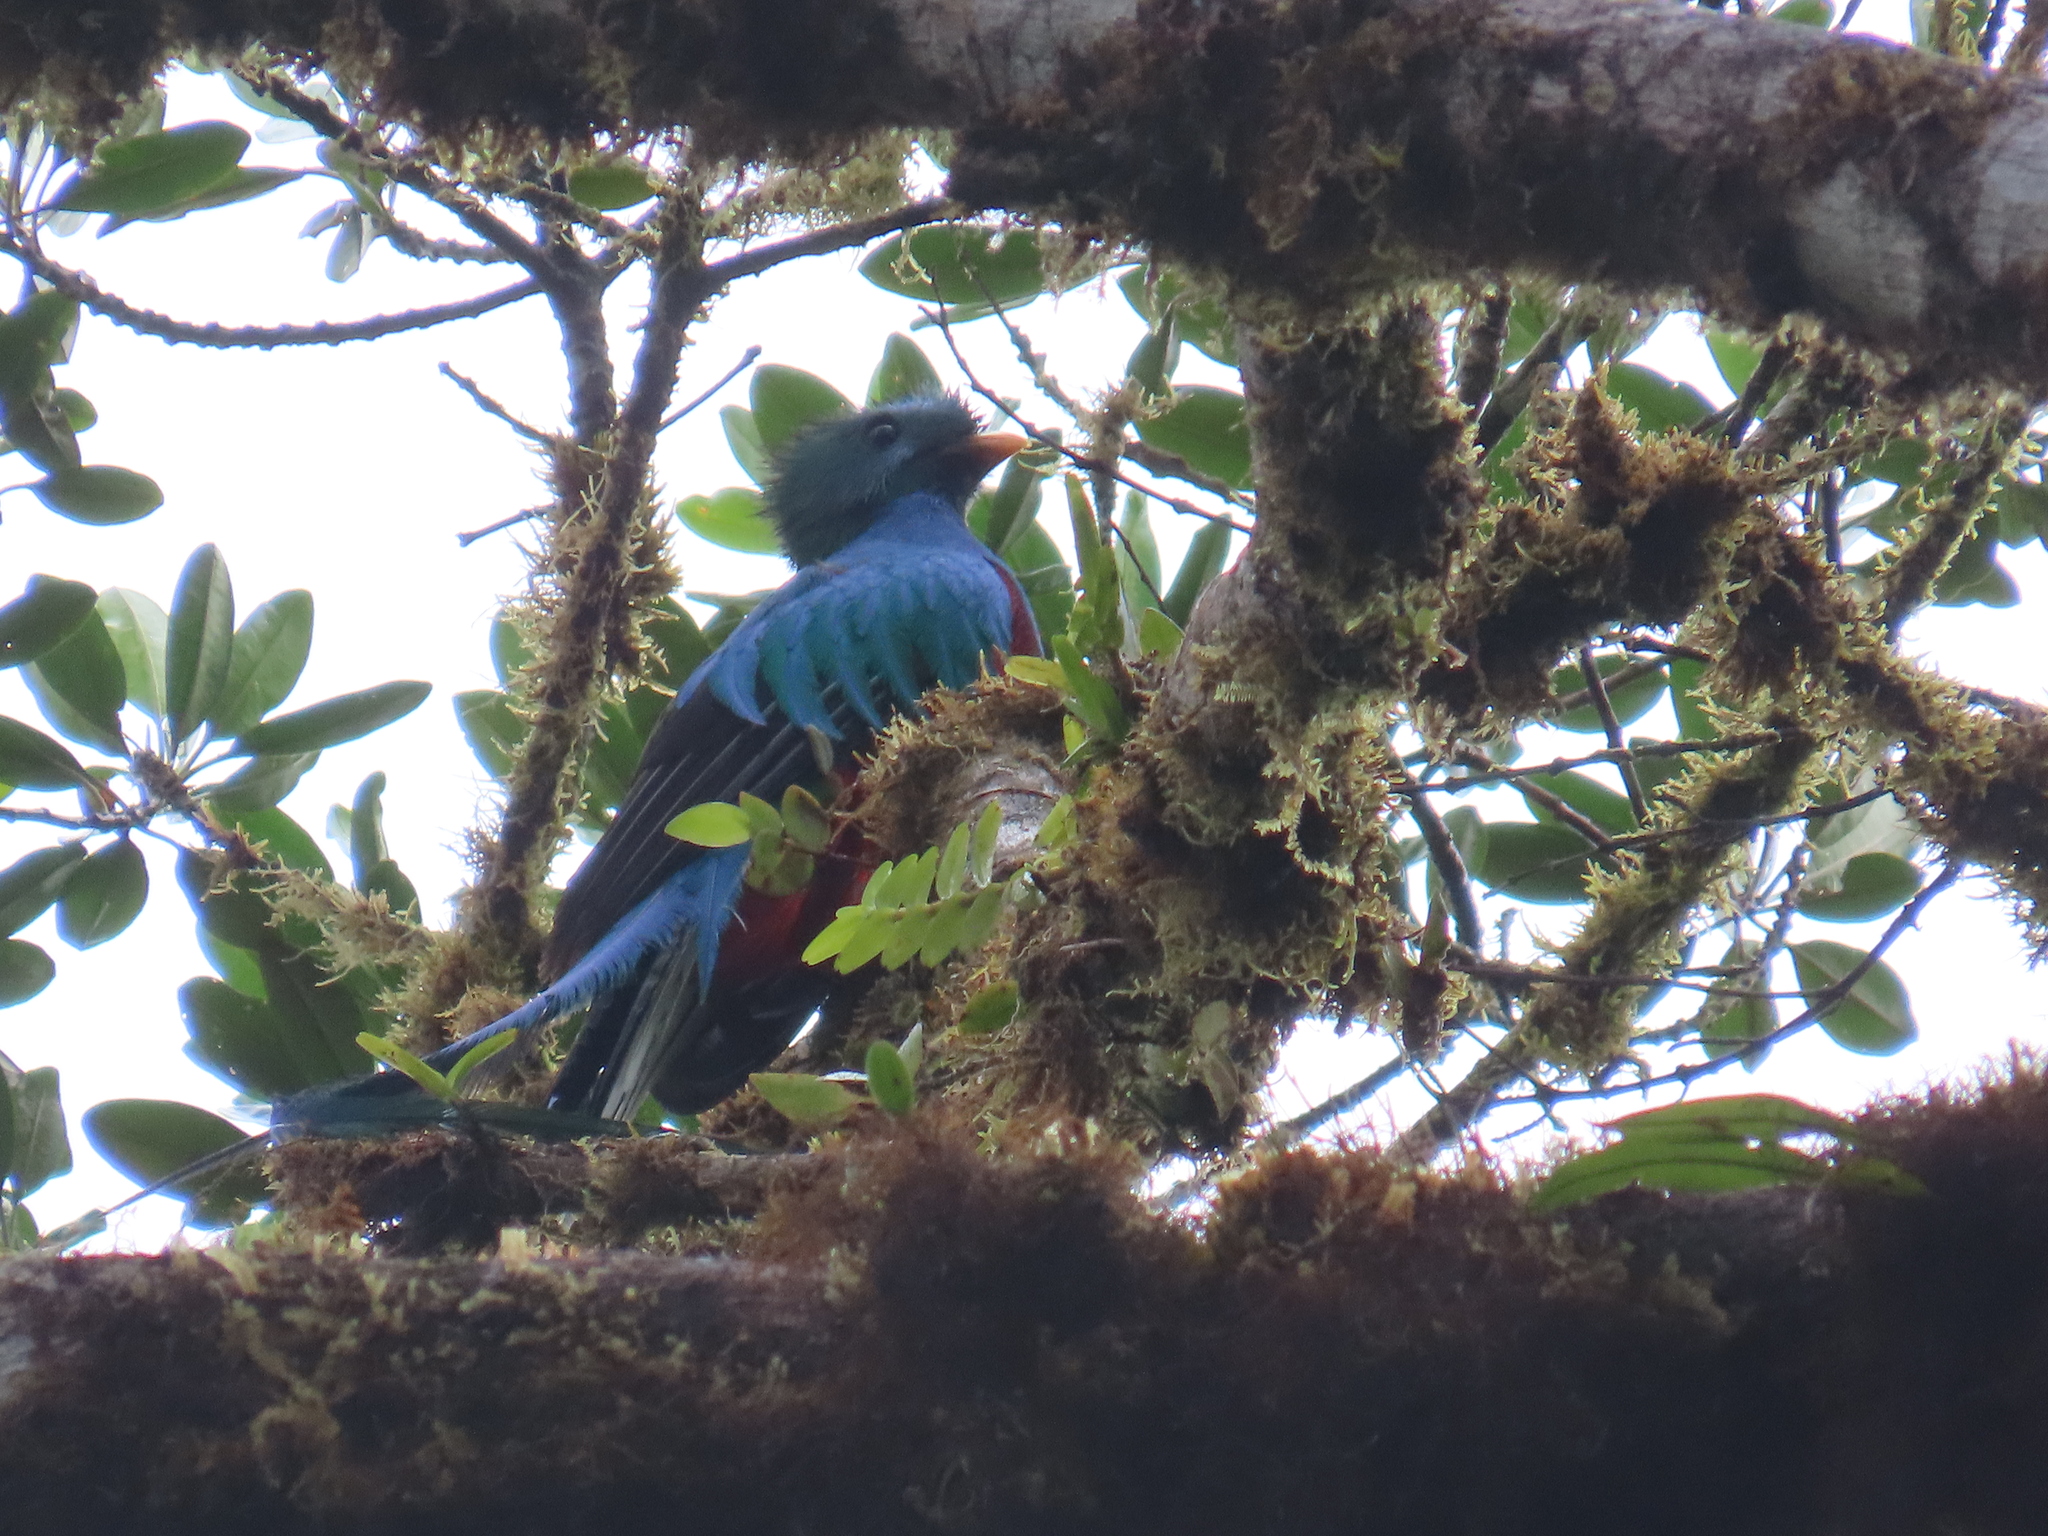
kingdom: Animalia
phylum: Chordata
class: Aves
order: Trogoniformes
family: Trogonidae
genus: Pharomachrus
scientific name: Pharomachrus mocinno
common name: Resplendent quetzal
